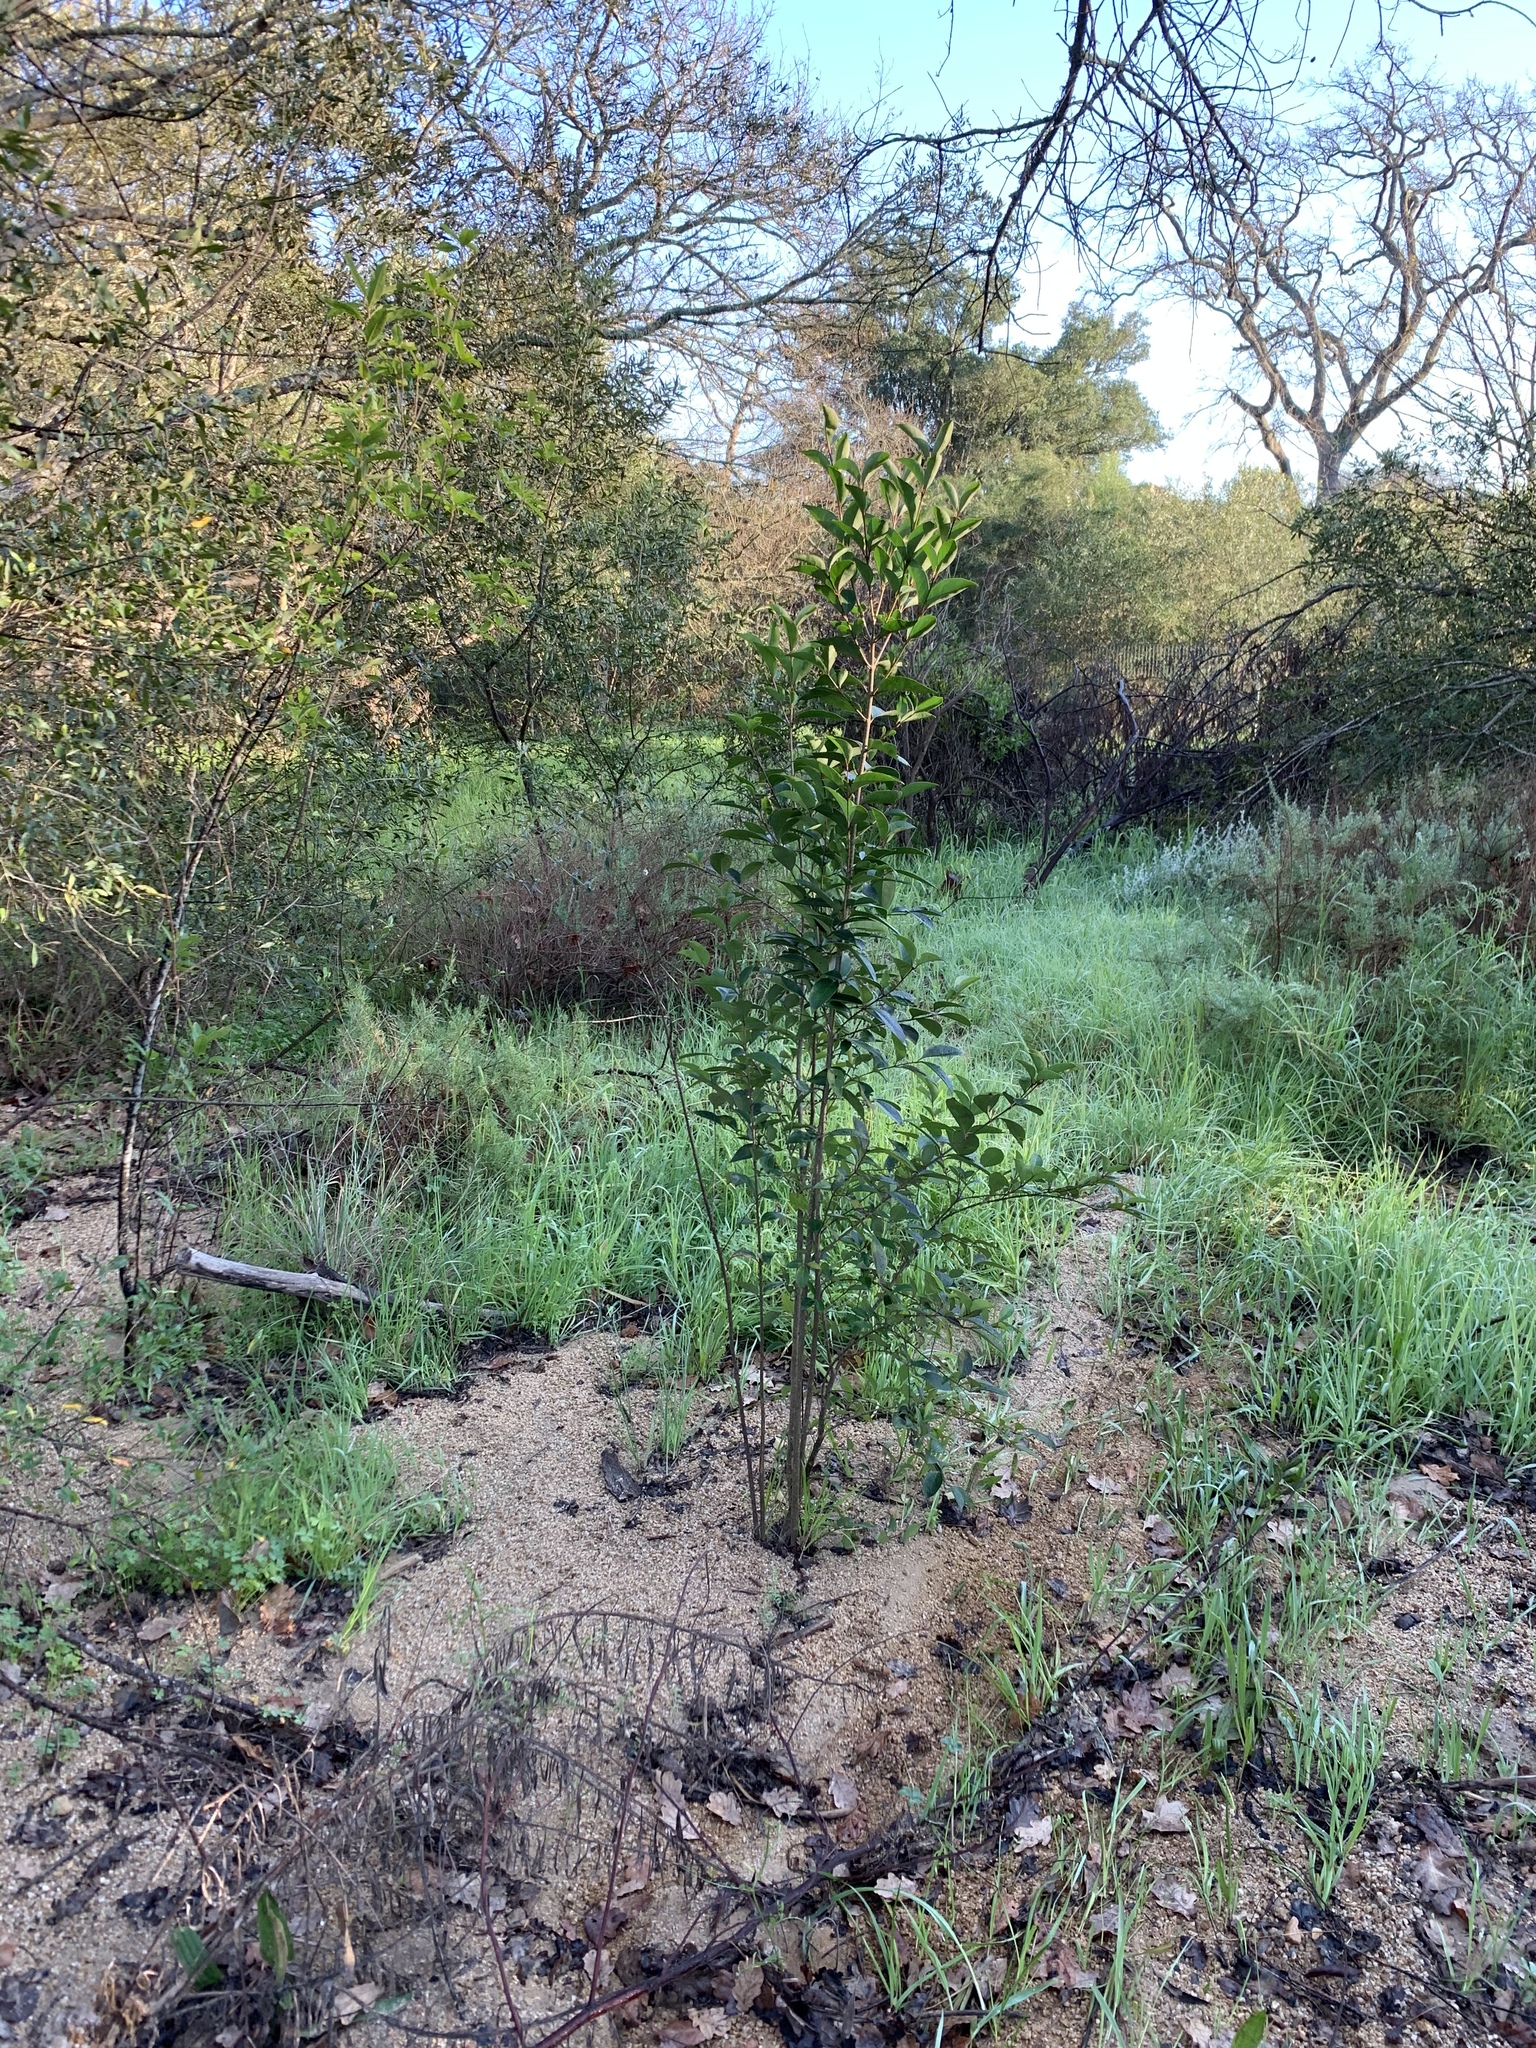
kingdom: Plantae
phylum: Tracheophyta
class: Magnoliopsida
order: Lamiales
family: Oleaceae
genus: Ligustrum
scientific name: Ligustrum lucidum
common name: Glossy privet
